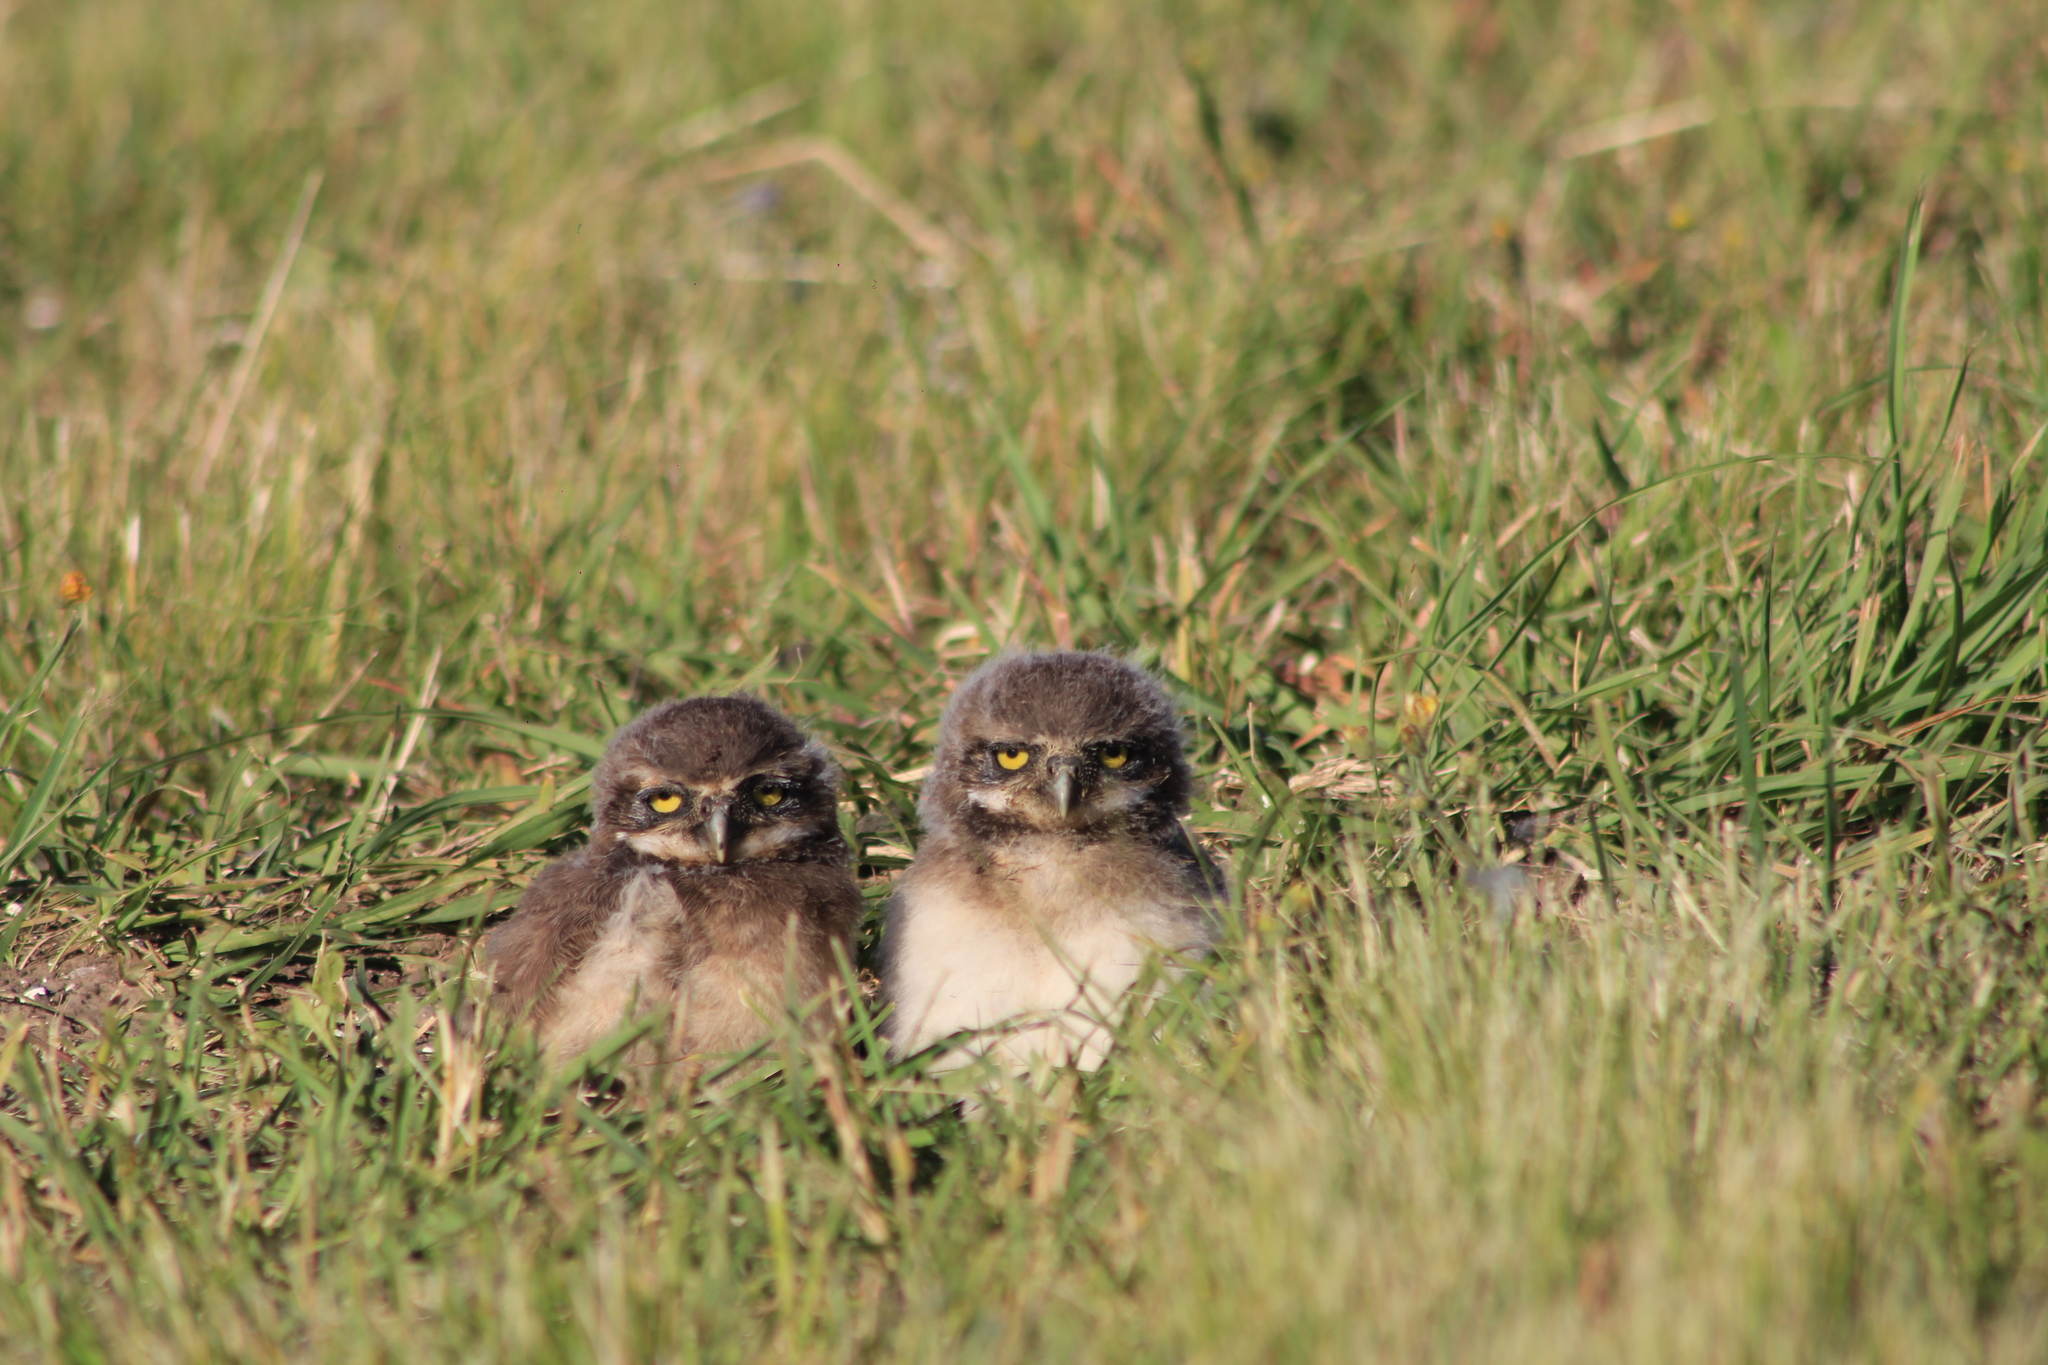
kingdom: Animalia
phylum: Chordata
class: Aves
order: Strigiformes
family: Strigidae
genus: Athene
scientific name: Athene cunicularia
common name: Burrowing owl
